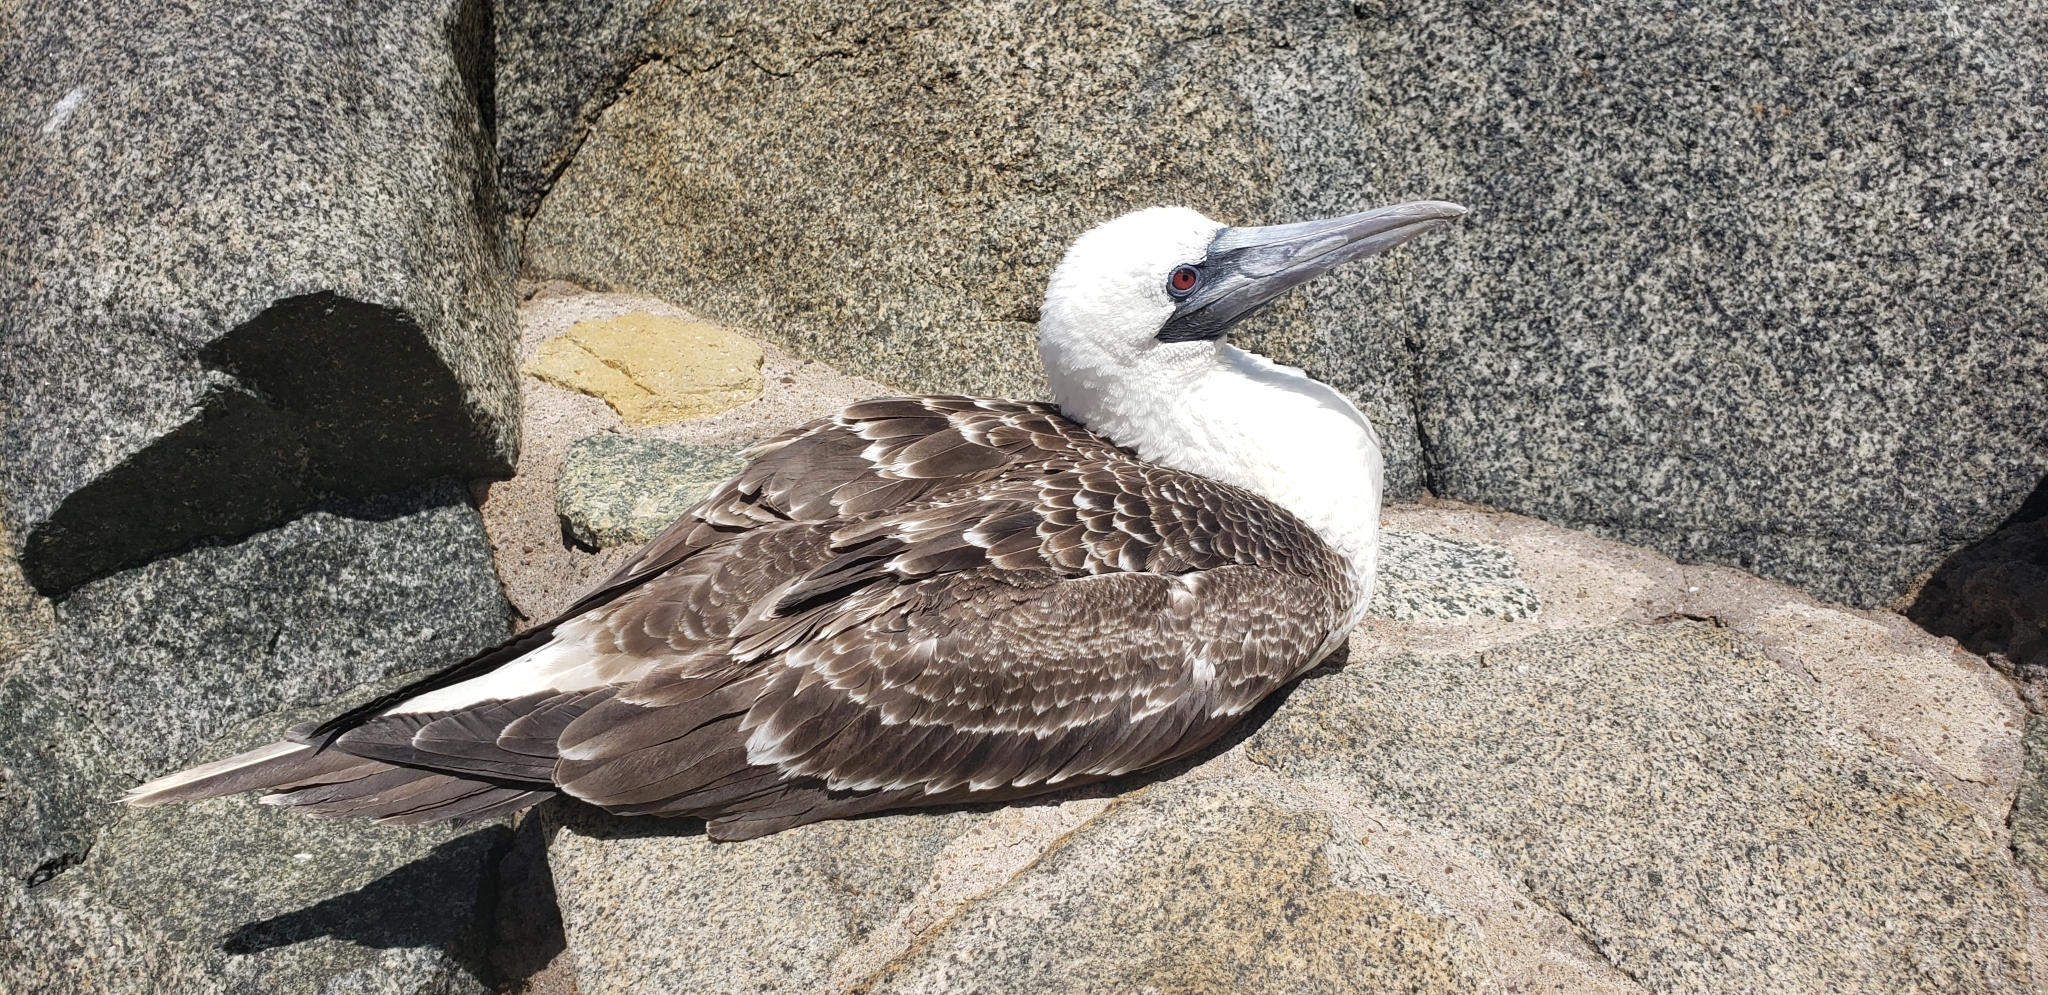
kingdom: Animalia
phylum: Chordata
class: Aves
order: Suliformes
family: Sulidae
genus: Sula
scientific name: Sula variegata
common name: Peruvian booby
